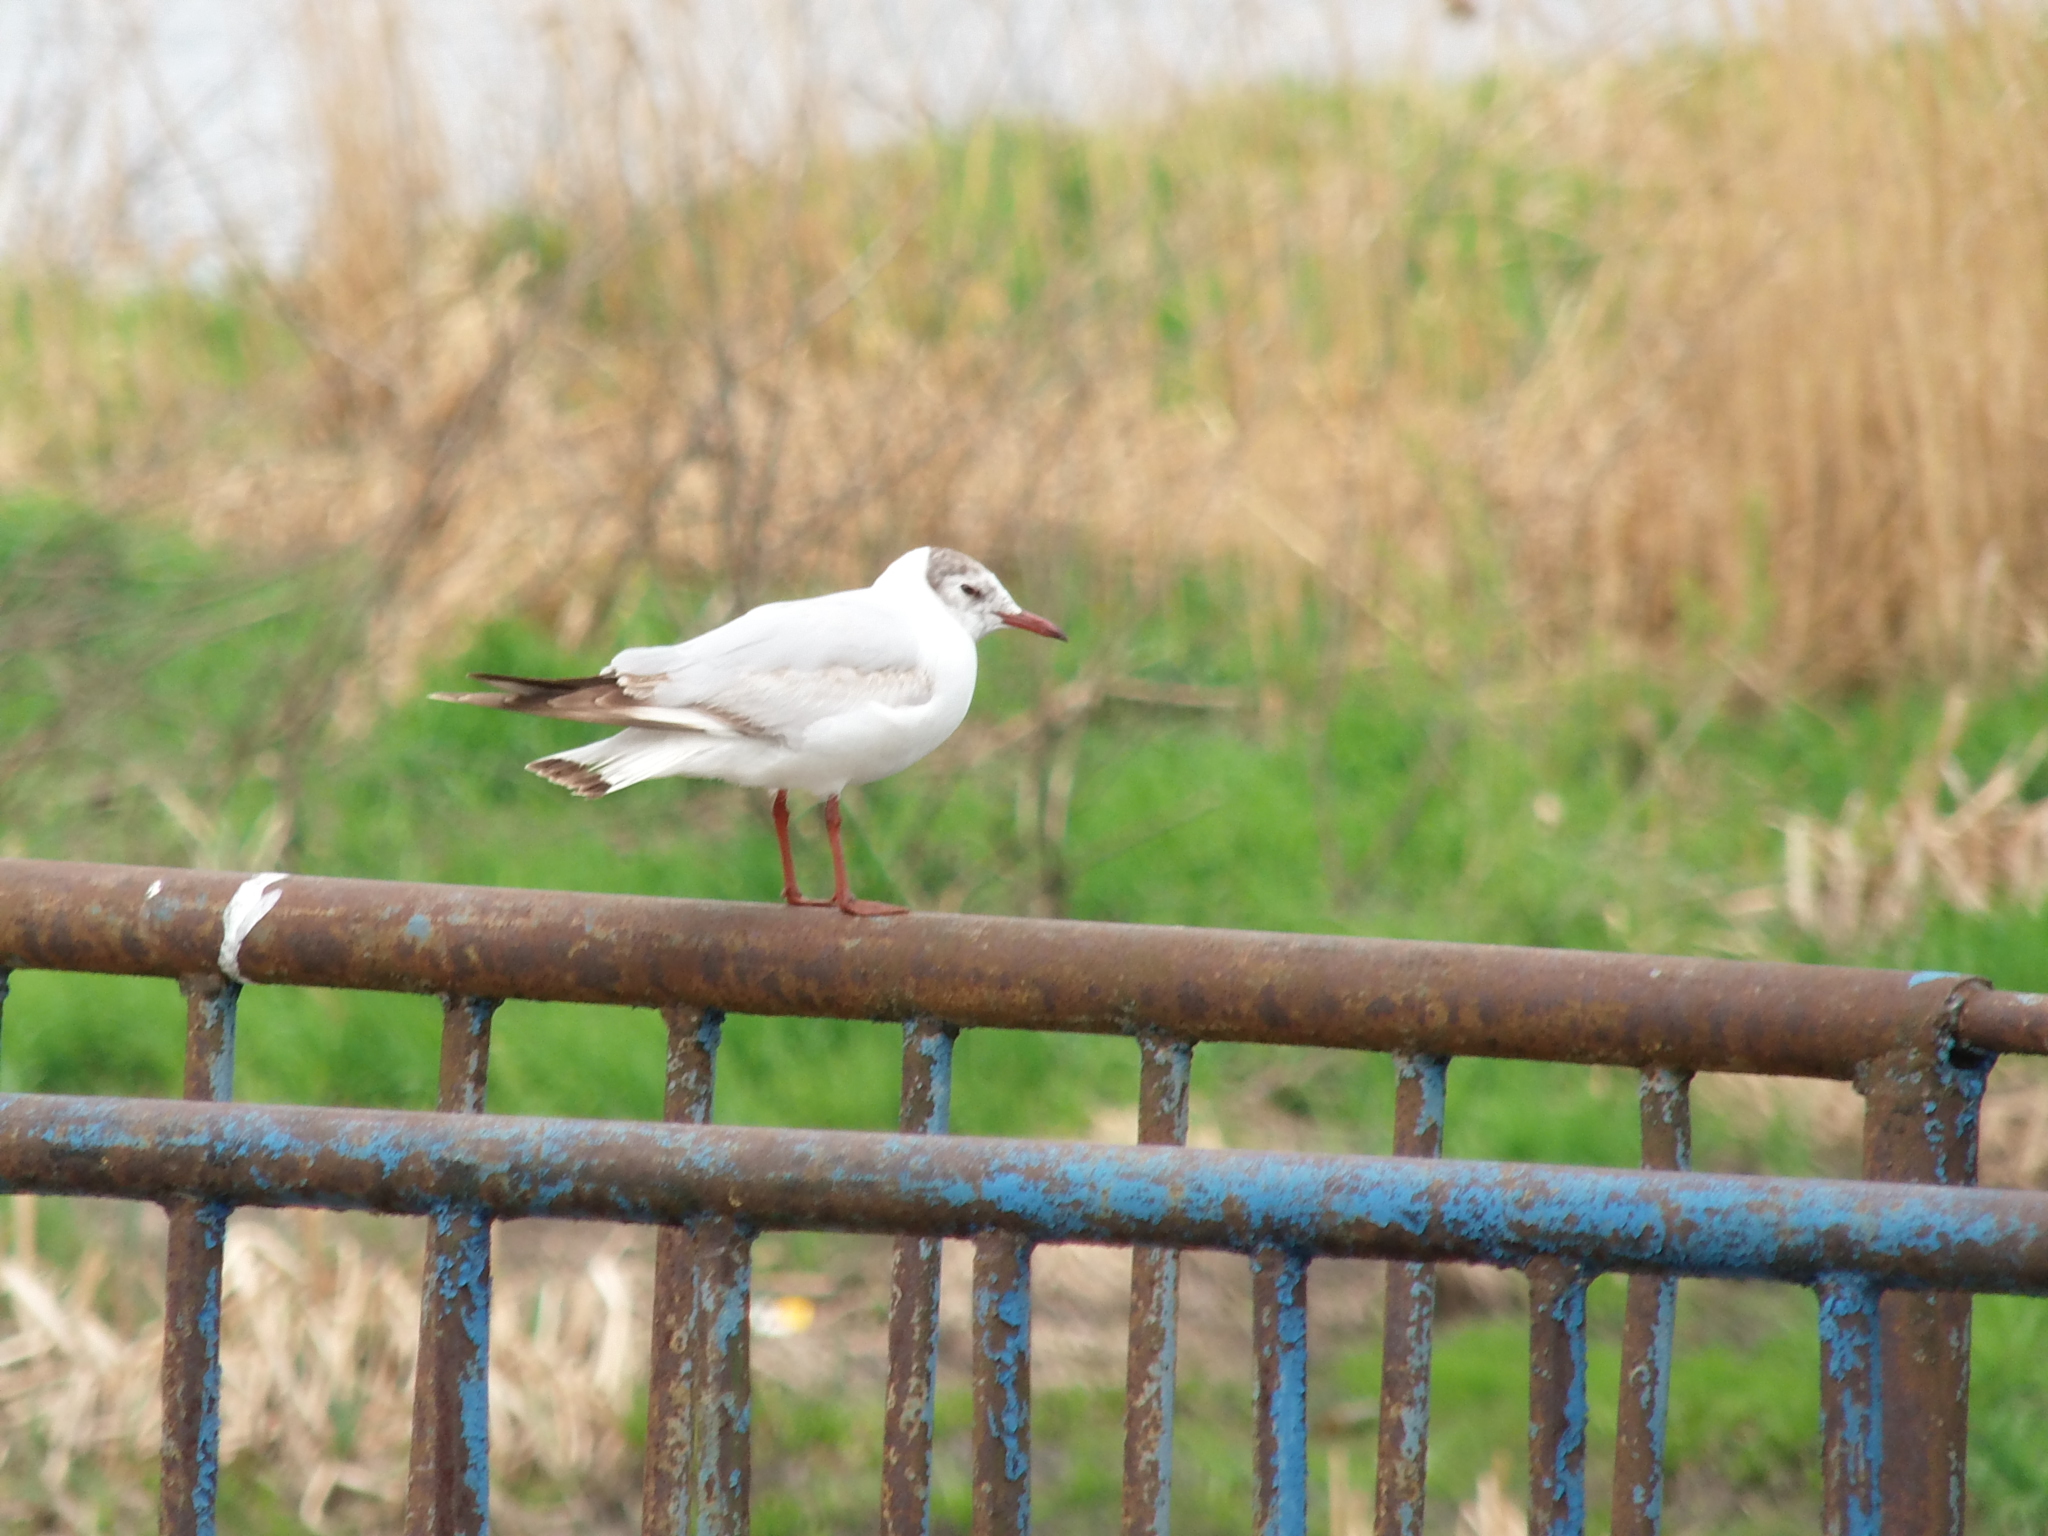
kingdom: Animalia
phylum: Chordata
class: Aves
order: Charadriiformes
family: Laridae
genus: Chroicocephalus
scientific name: Chroicocephalus ridibundus
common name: Black-headed gull
